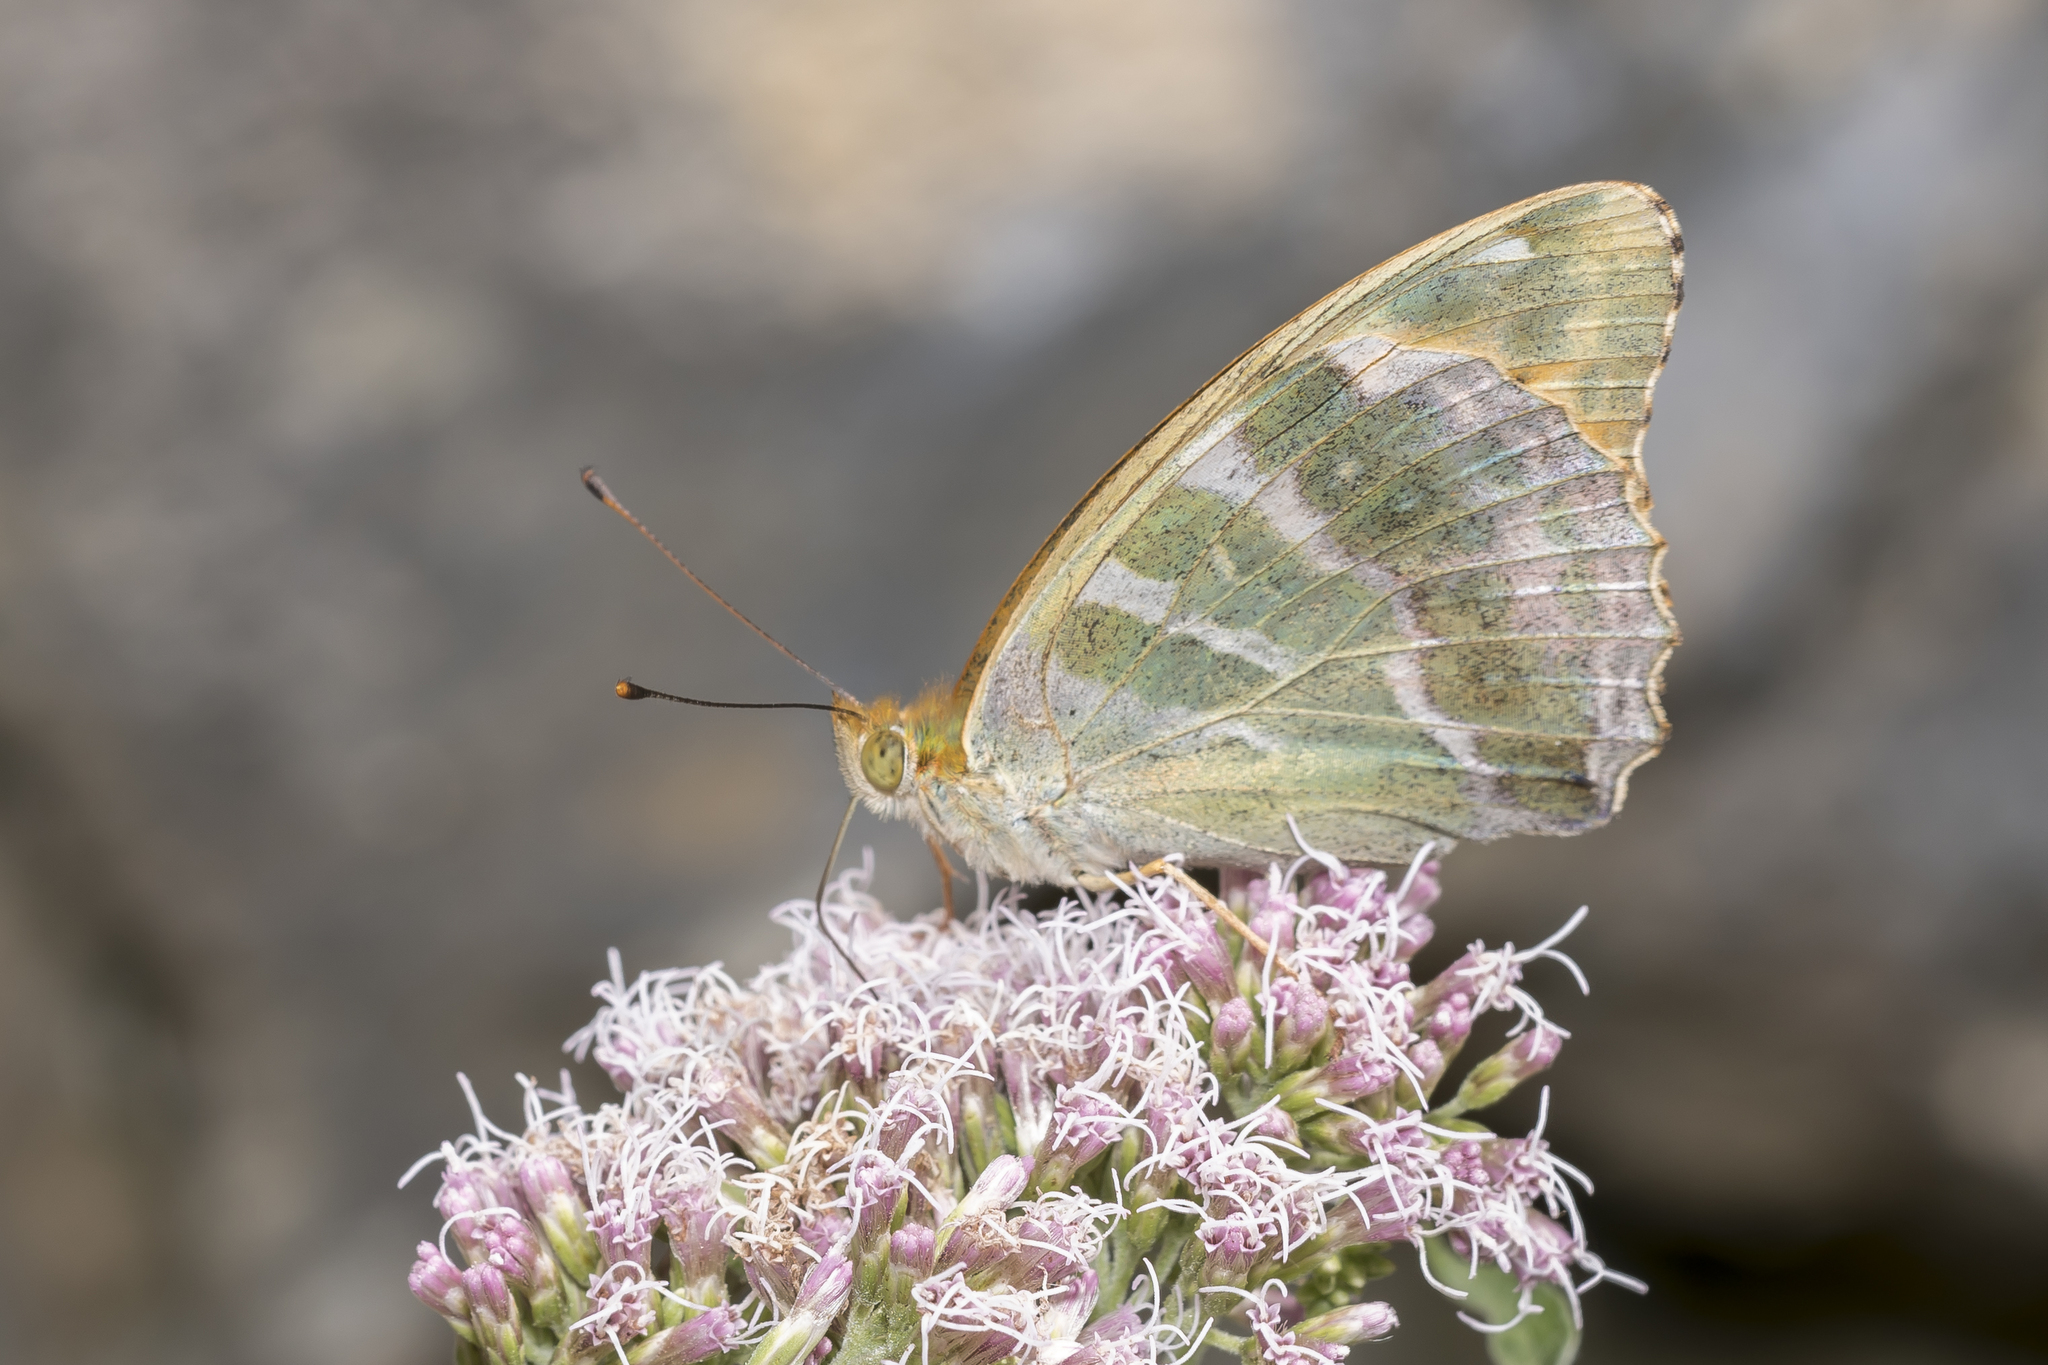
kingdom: Animalia
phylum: Arthropoda
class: Insecta
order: Lepidoptera
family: Nymphalidae
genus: Argynnis
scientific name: Argynnis paphia
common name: Silver-washed fritillary
